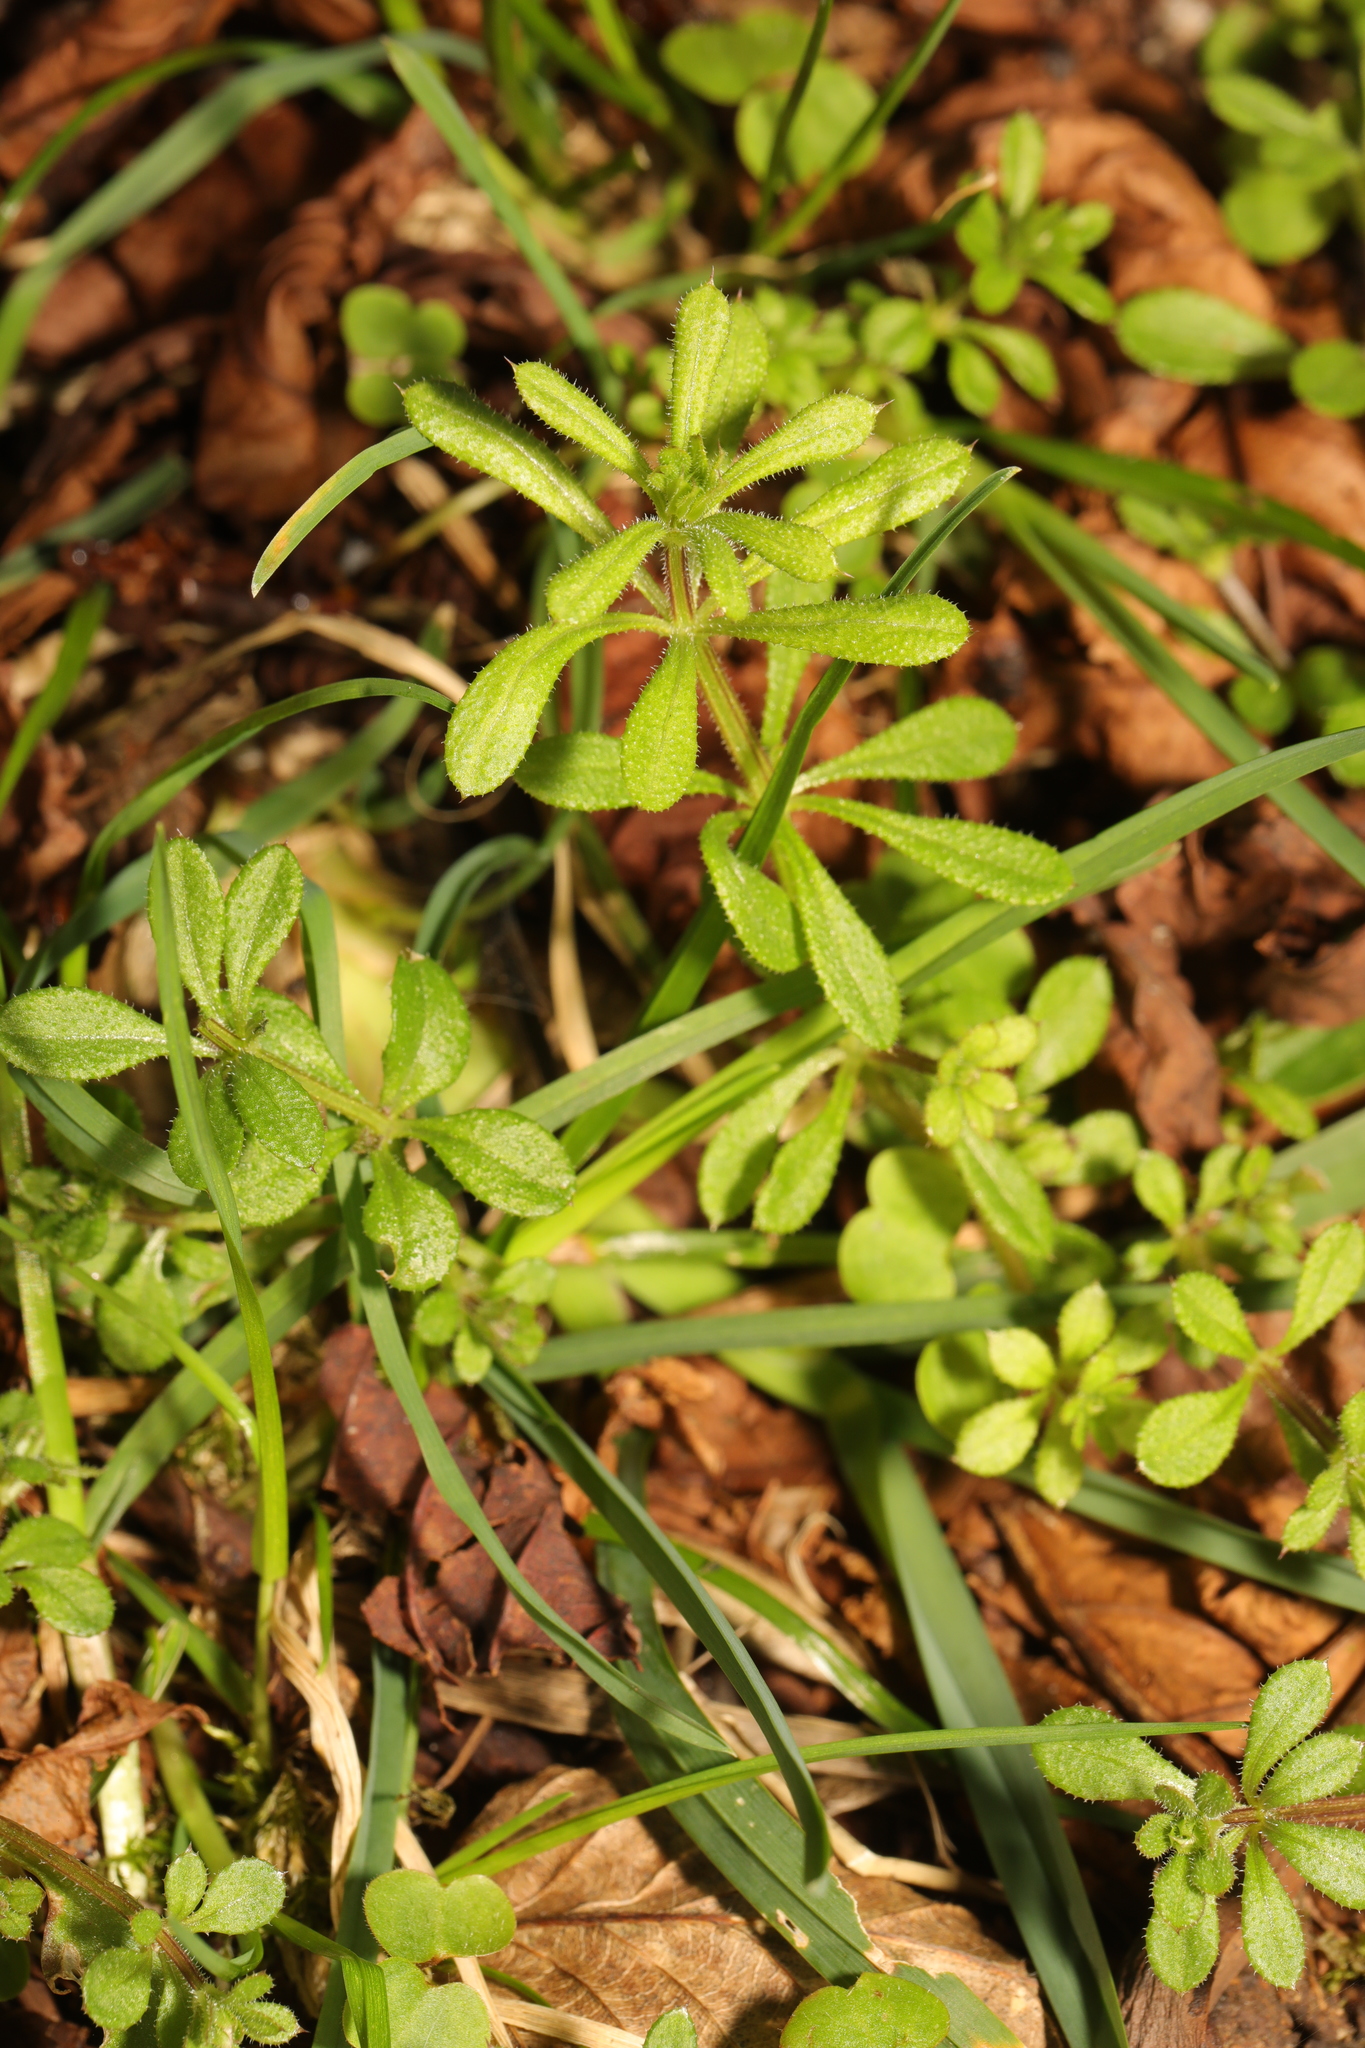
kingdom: Plantae
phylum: Tracheophyta
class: Magnoliopsida
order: Gentianales
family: Rubiaceae
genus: Galium
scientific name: Galium aparine
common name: Cleavers
